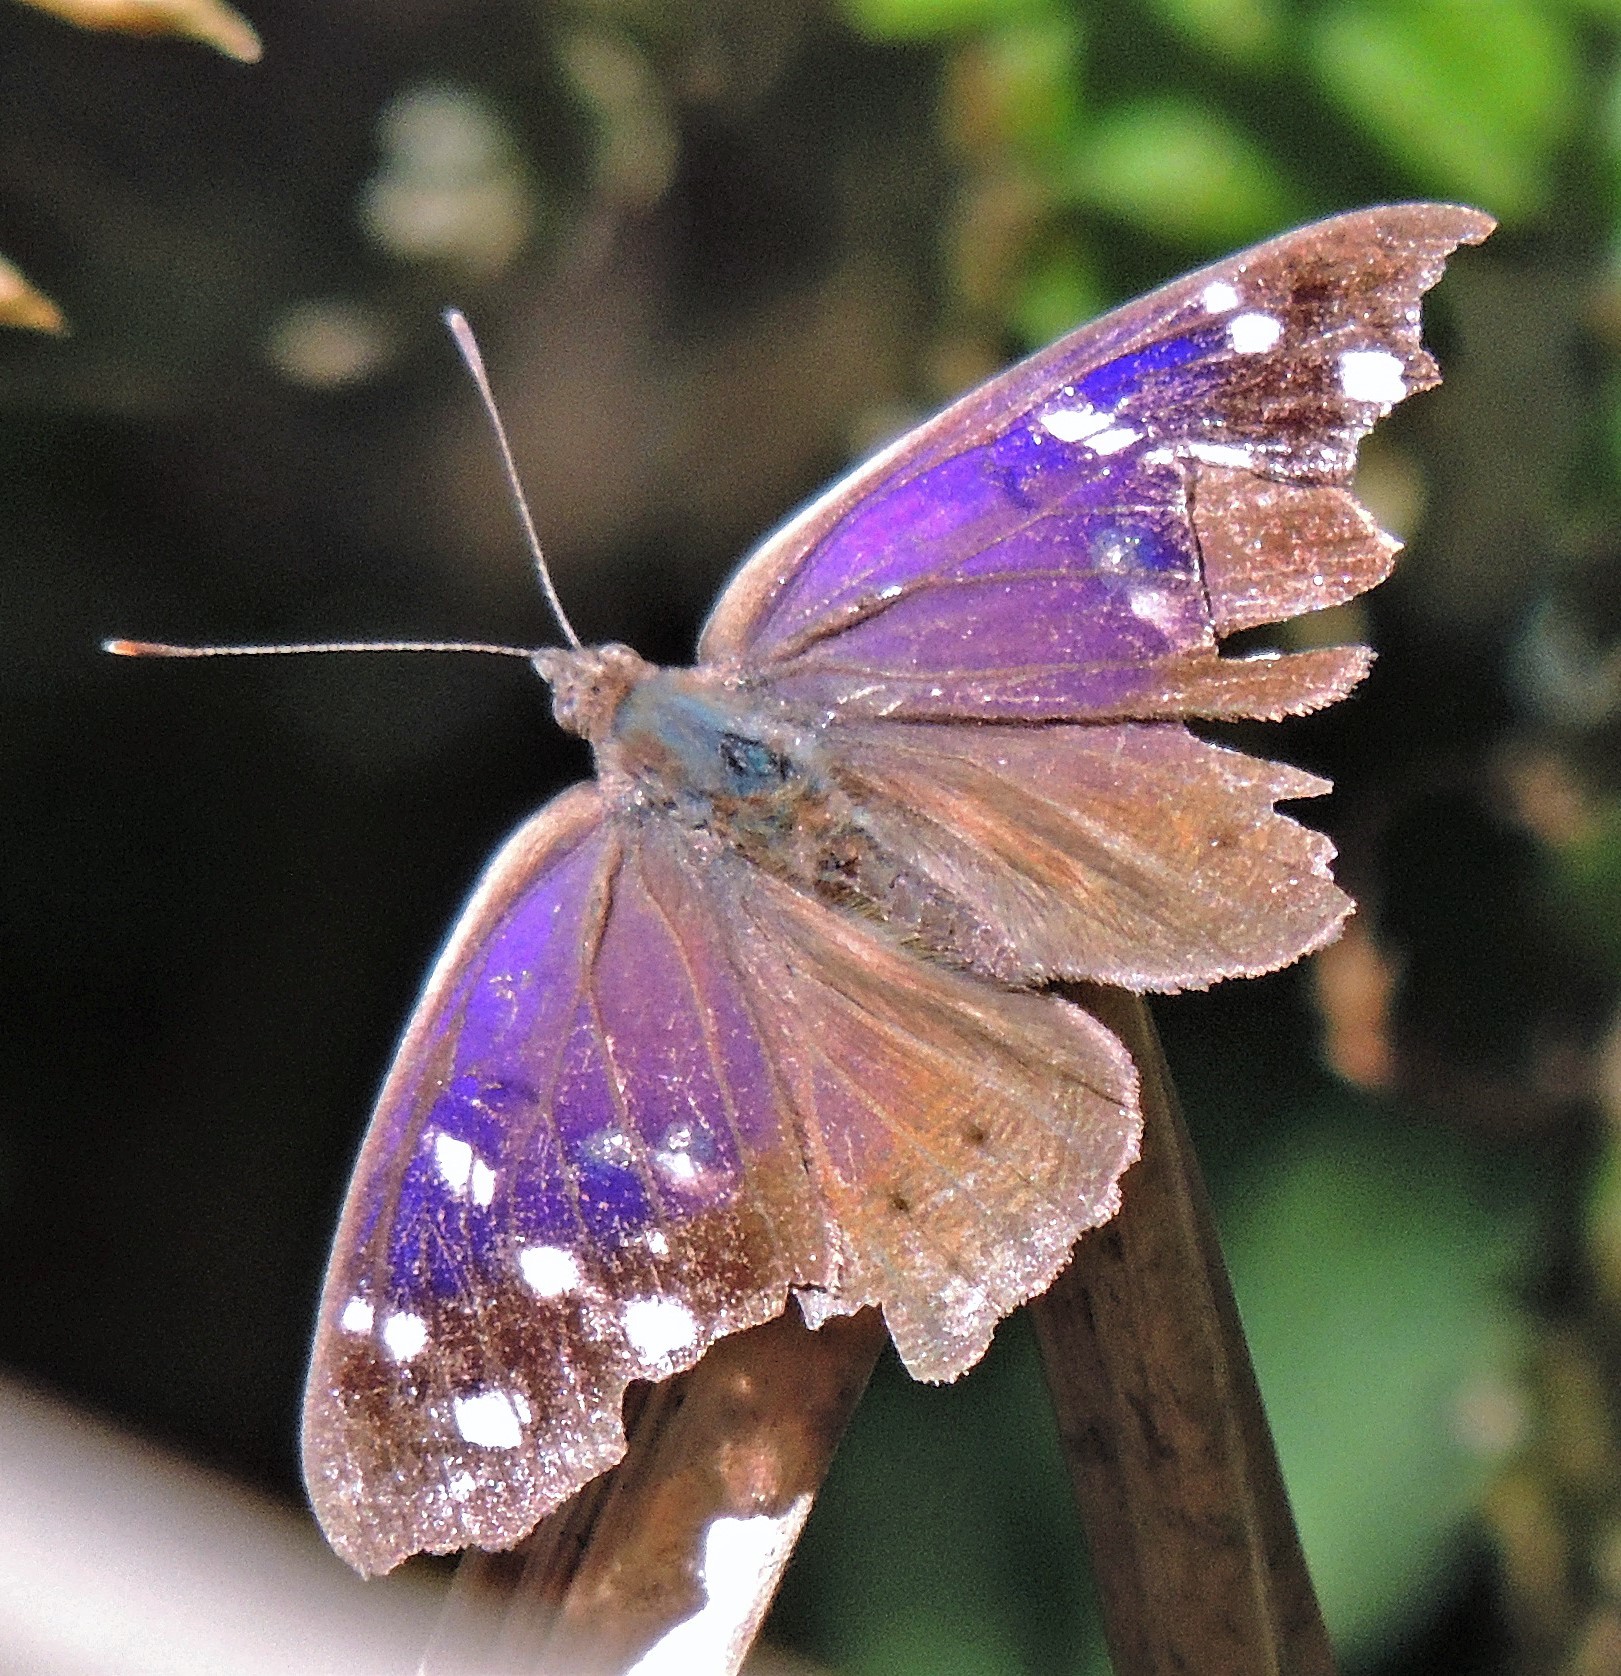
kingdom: Animalia
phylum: Arthropoda
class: Insecta
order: Lepidoptera
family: Nymphalidae
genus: Eunica
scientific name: Eunica tatila
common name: Florida purplewing
